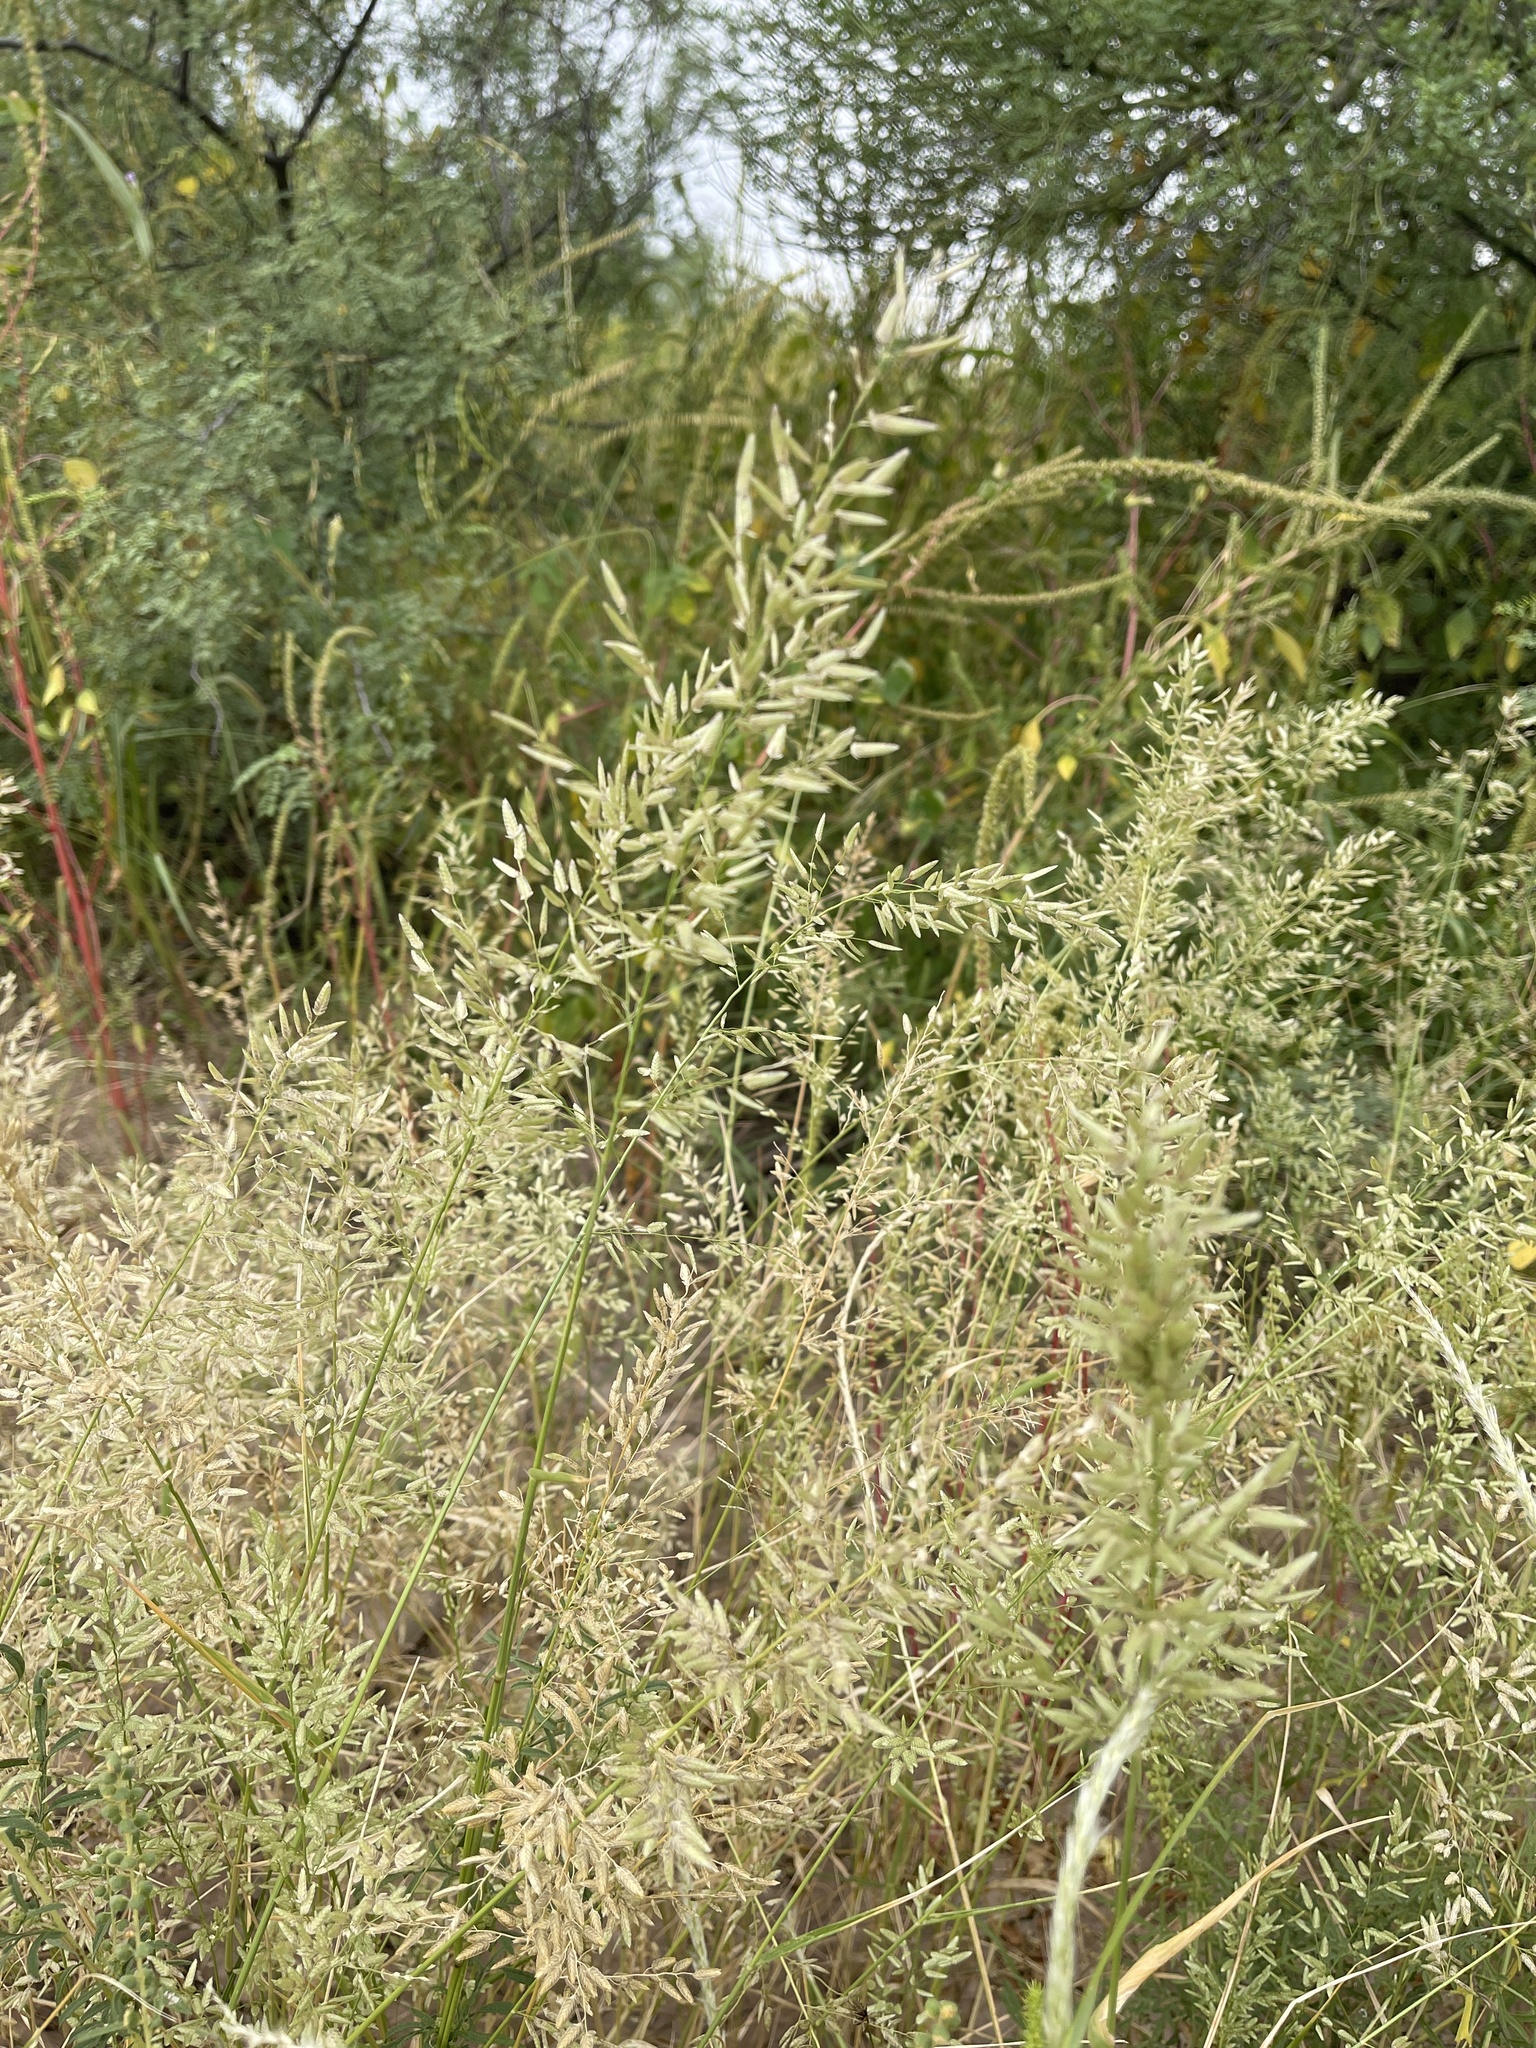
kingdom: Plantae
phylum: Tracheophyta
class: Liliopsida
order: Poales
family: Poaceae
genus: Eragrostis
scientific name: Eragrostis lehmanniana
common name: Lehmann lovegrass
